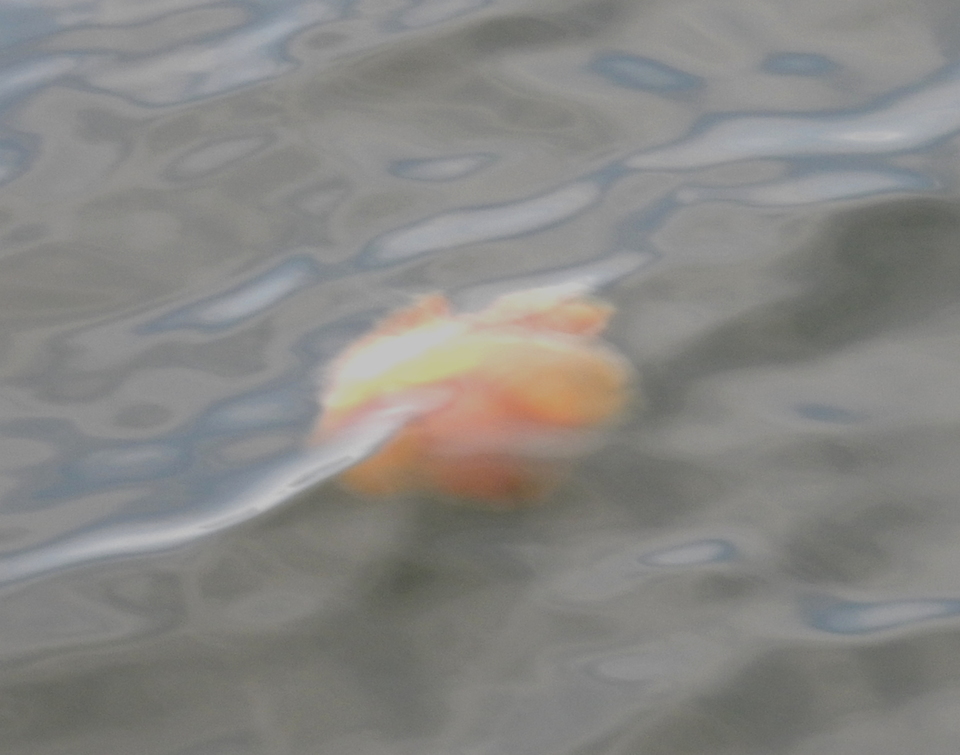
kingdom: Animalia
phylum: Cnidaria
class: Scyphozoa
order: Semaeostomeae
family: Phacellophoridae
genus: Phacellophora
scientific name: Phacellophora camtschatica
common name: Fried-egg jellyfish
